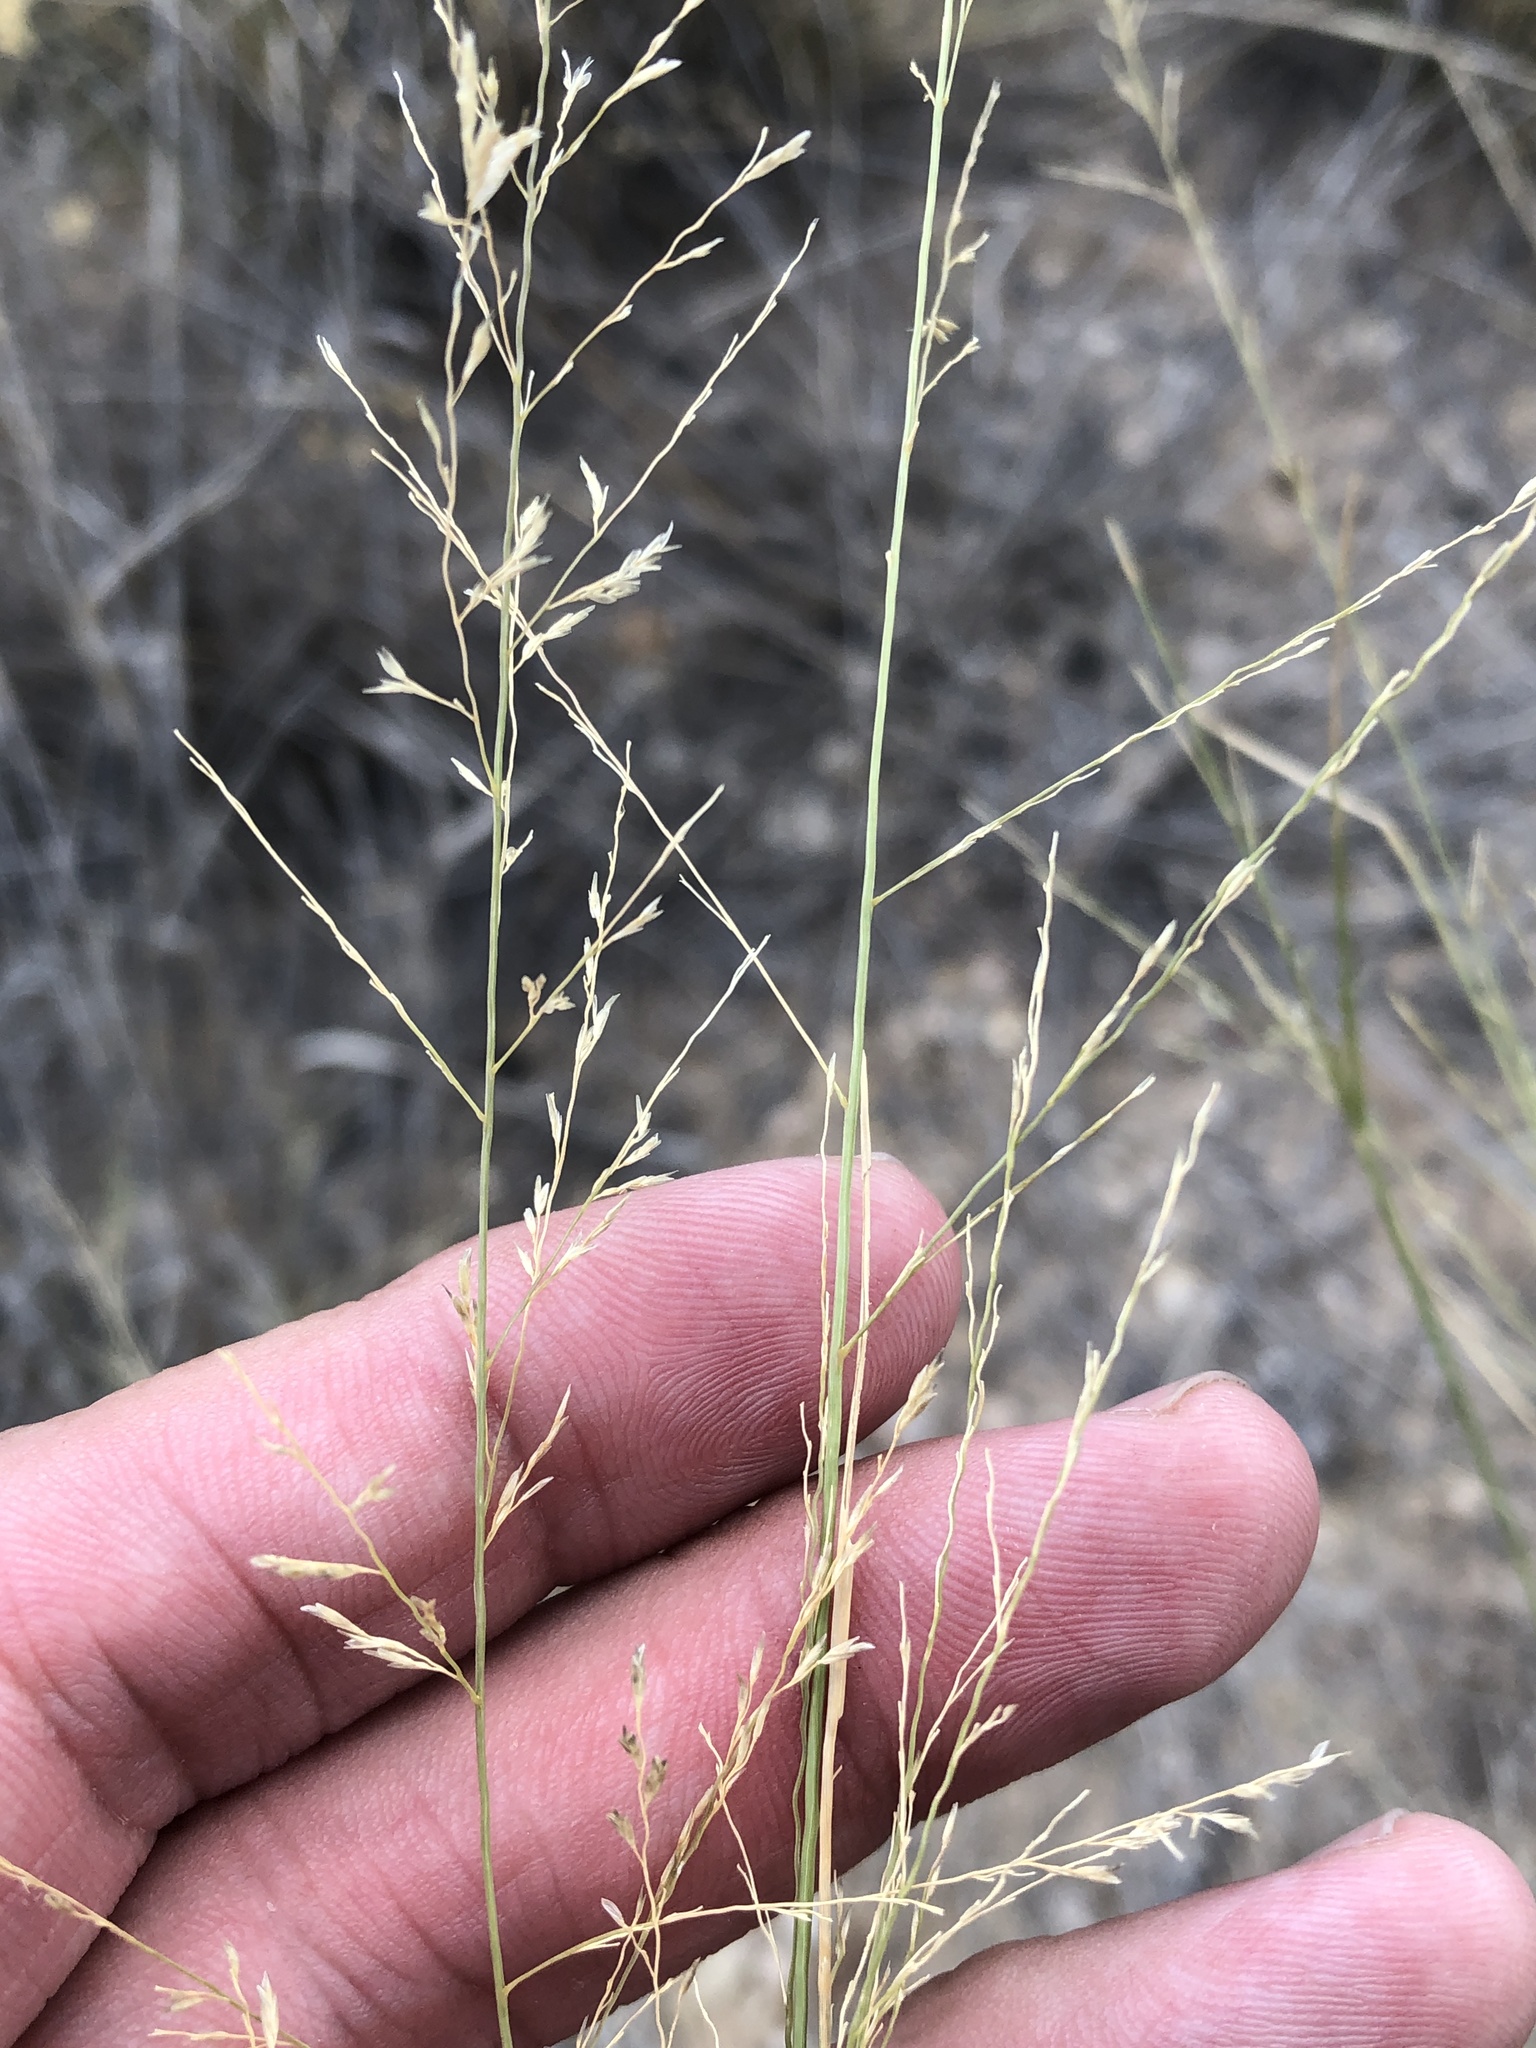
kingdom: Plantae
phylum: Tracheophyta
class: Liliopsida
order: Poales
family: Poaceae
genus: Eragrostis
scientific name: Eragrostis lehmanniana
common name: Lehmann lovegrass
